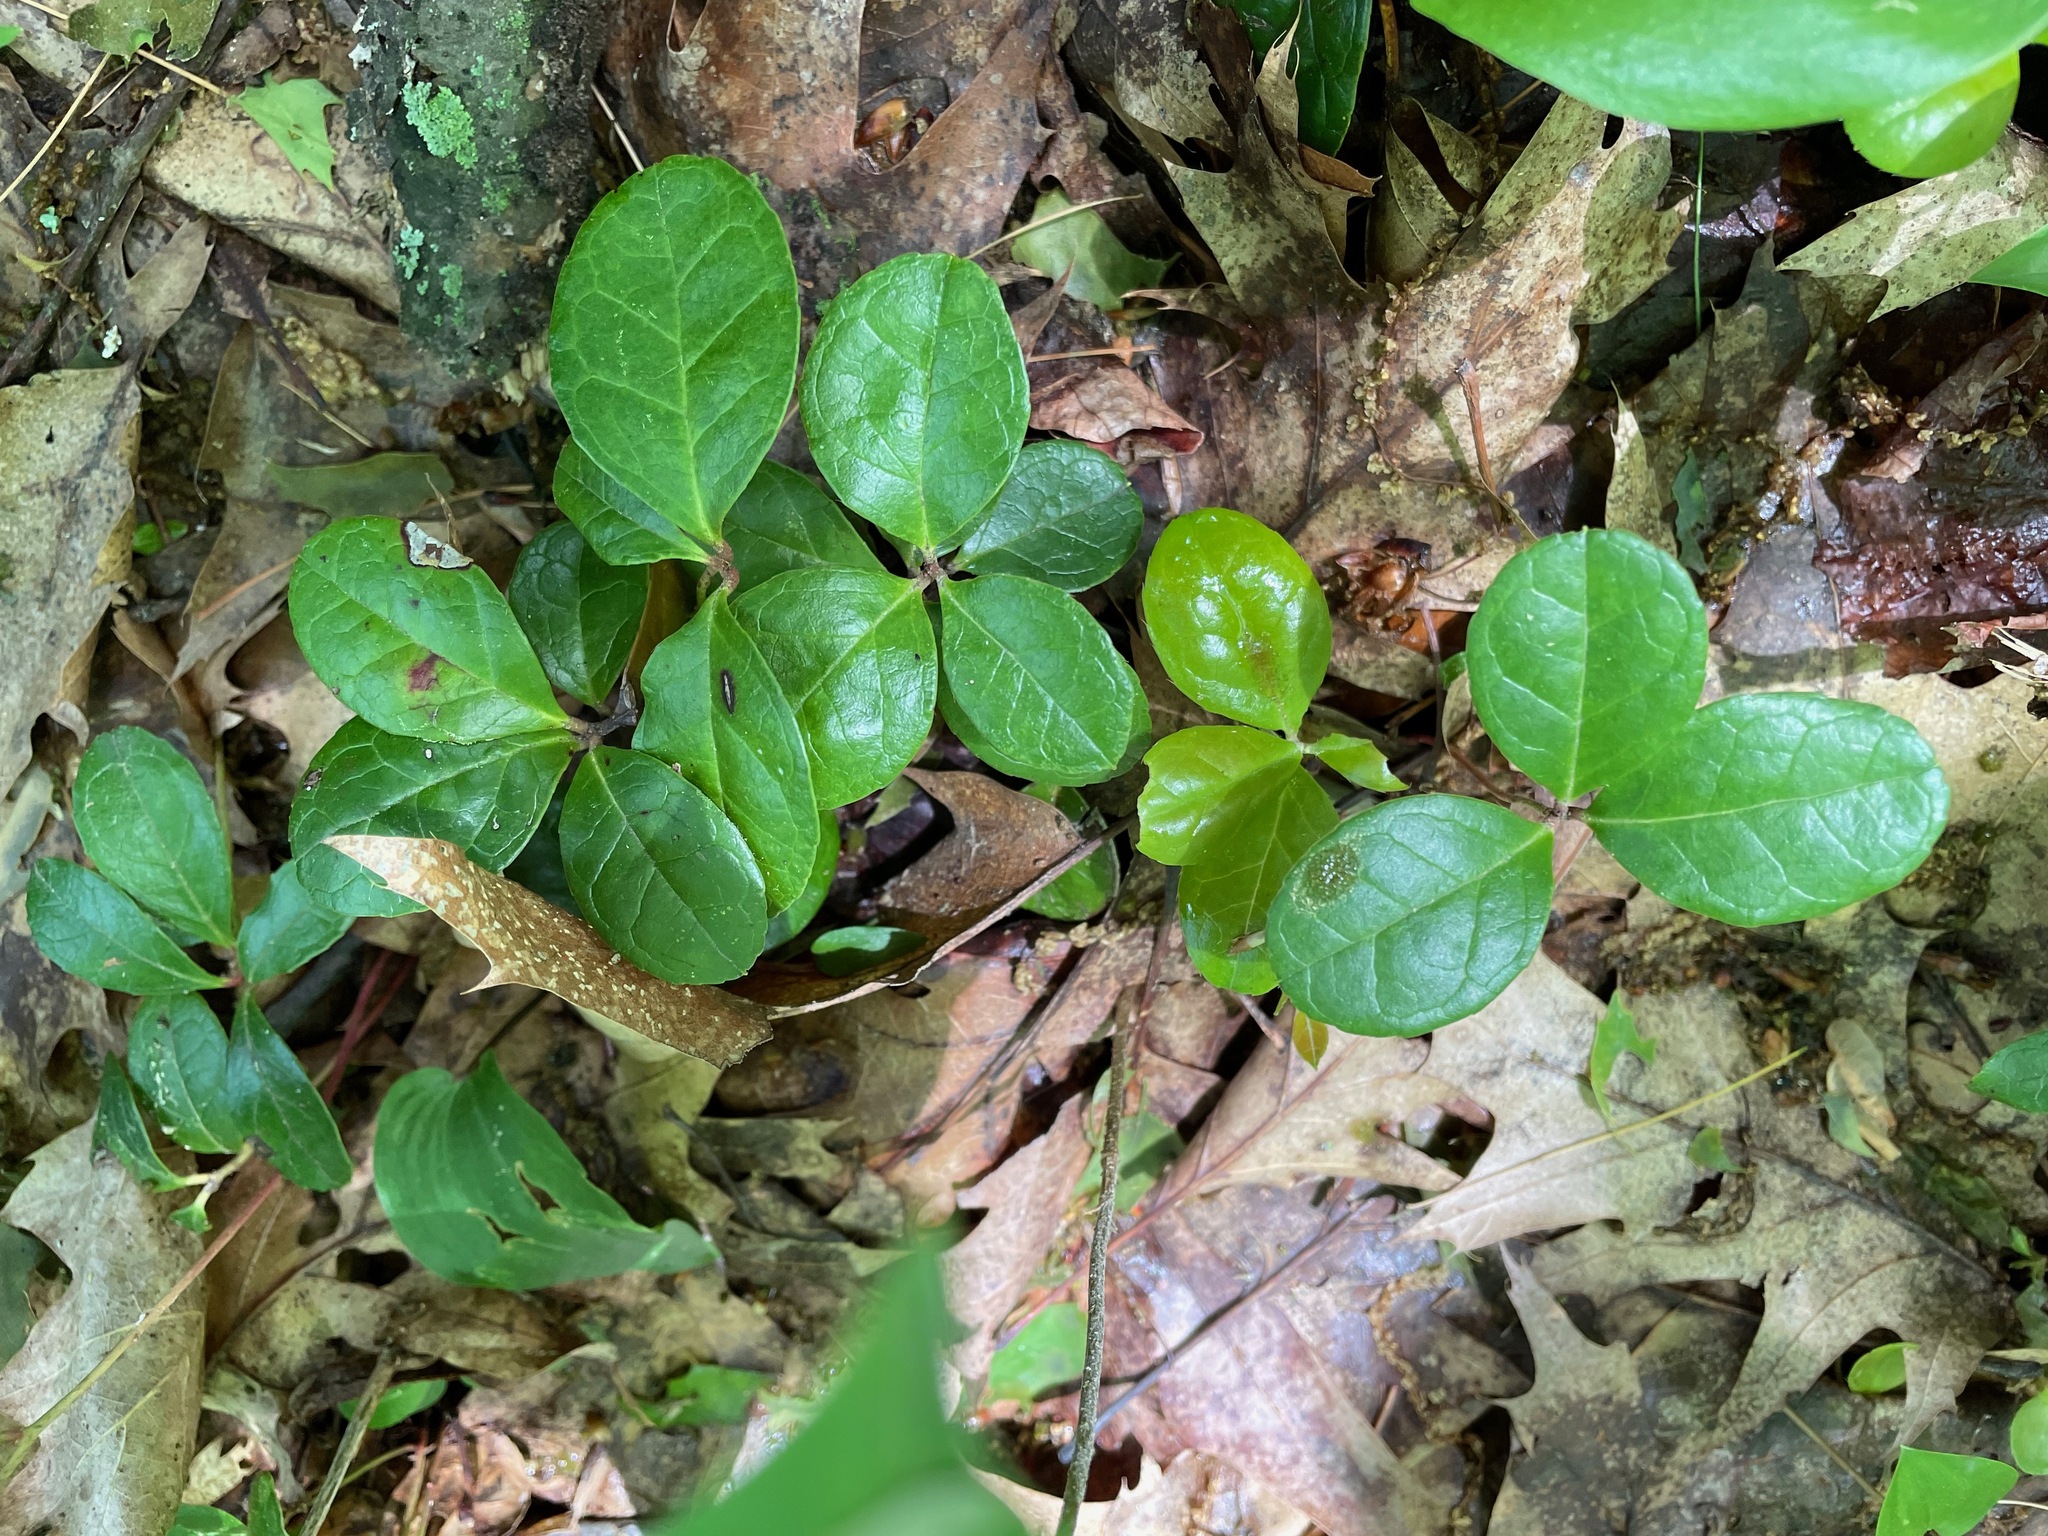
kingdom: Plantae
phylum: Tracheophyta
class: Magnoliopsida
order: Ericales
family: Ericaceae
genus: Gaultheria
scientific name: Gaultheria procumbens
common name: Checkerberry
